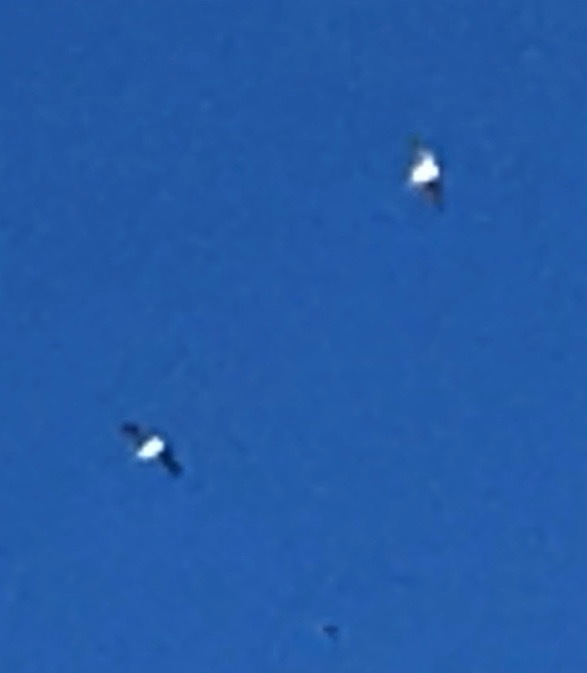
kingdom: Animalia
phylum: Chordata
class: Aves
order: Charadriiformes
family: Laridae
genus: Leucophaeus
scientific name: Leucophaeus pipixcan
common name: Franklin's gull
